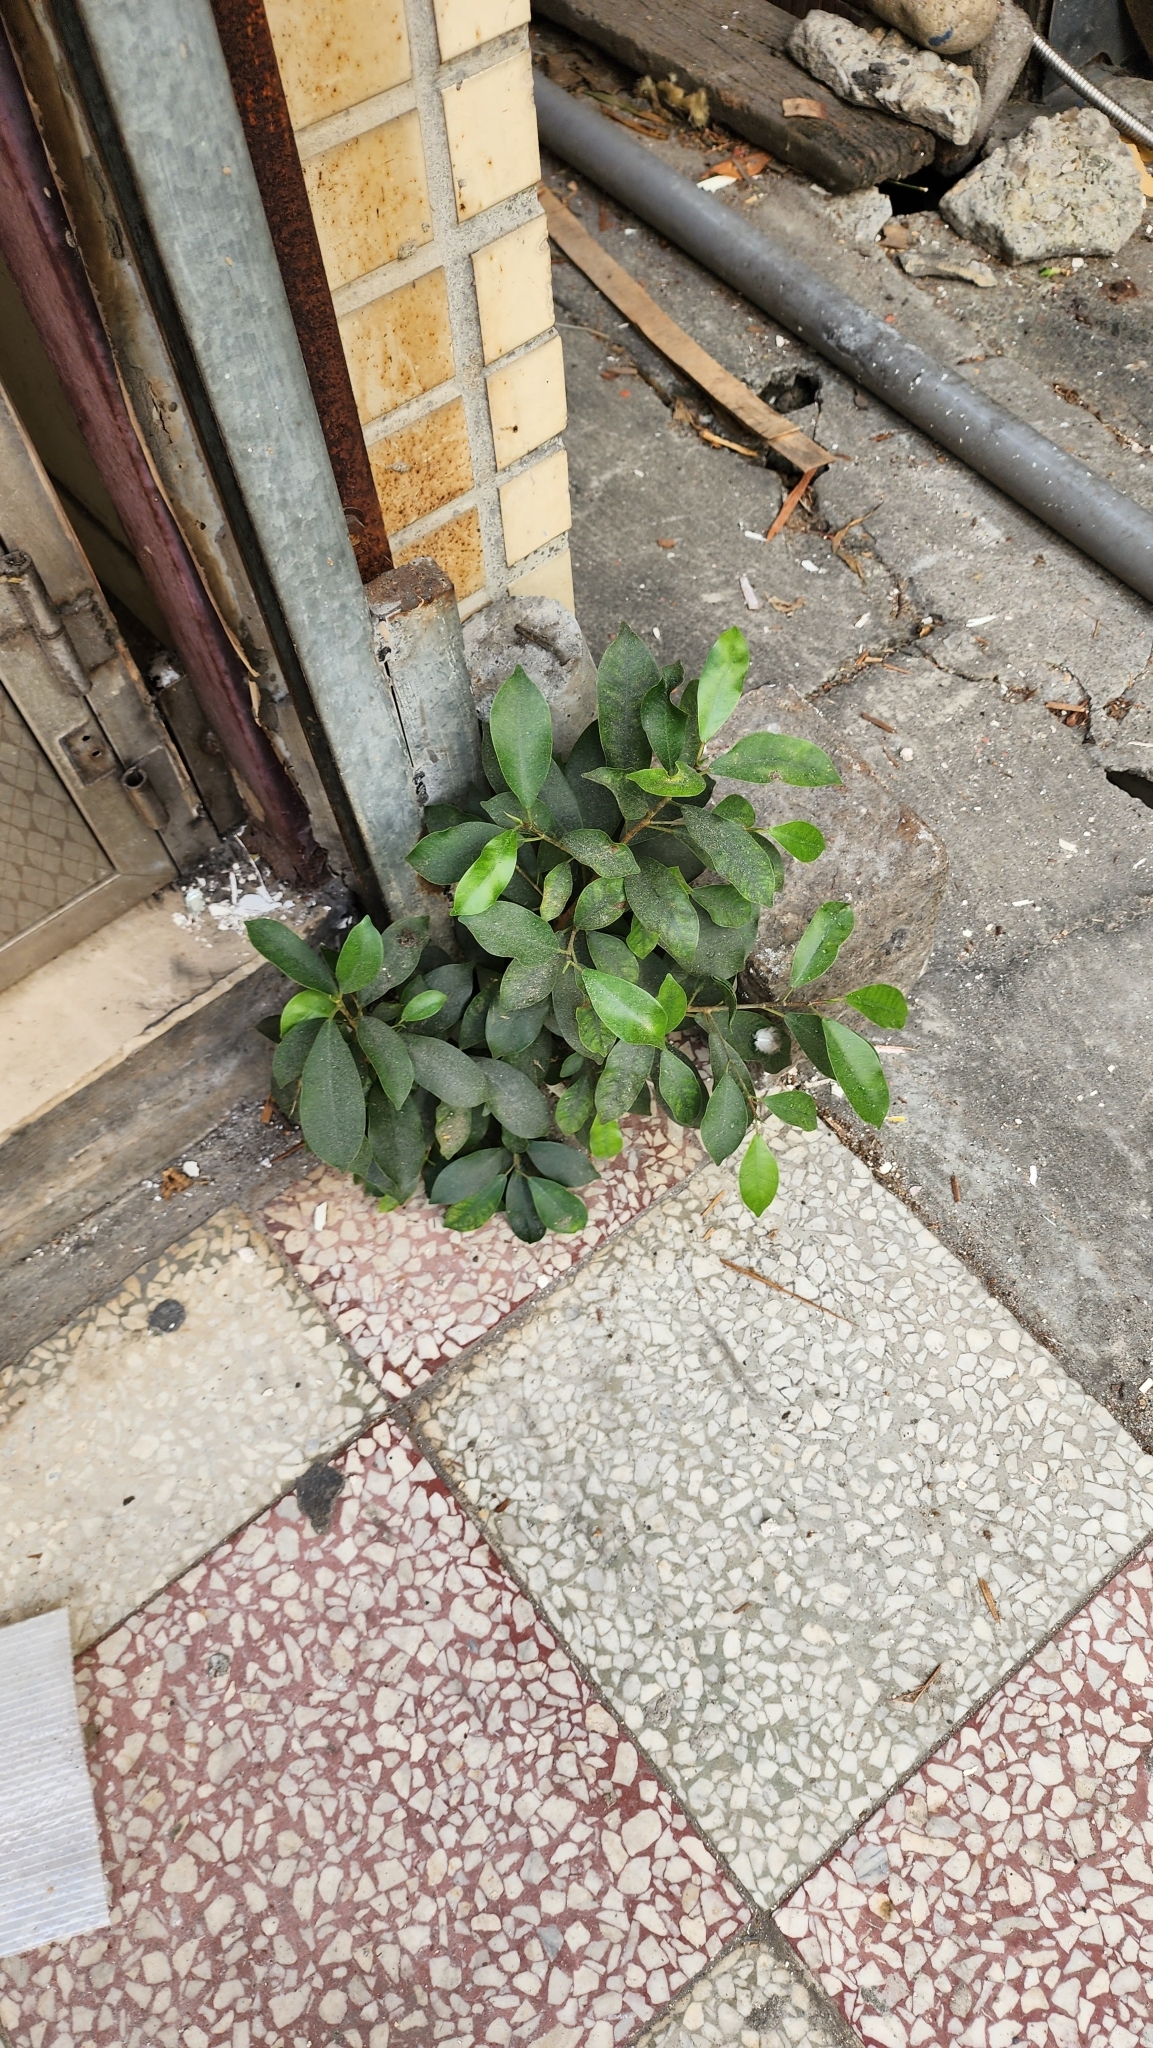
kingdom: Plantae
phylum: Tracheophyta
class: Magnoliopsida
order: Rosales
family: Moraceae
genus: Ficus
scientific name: Ficus microcarpa
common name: Chinese banyan
